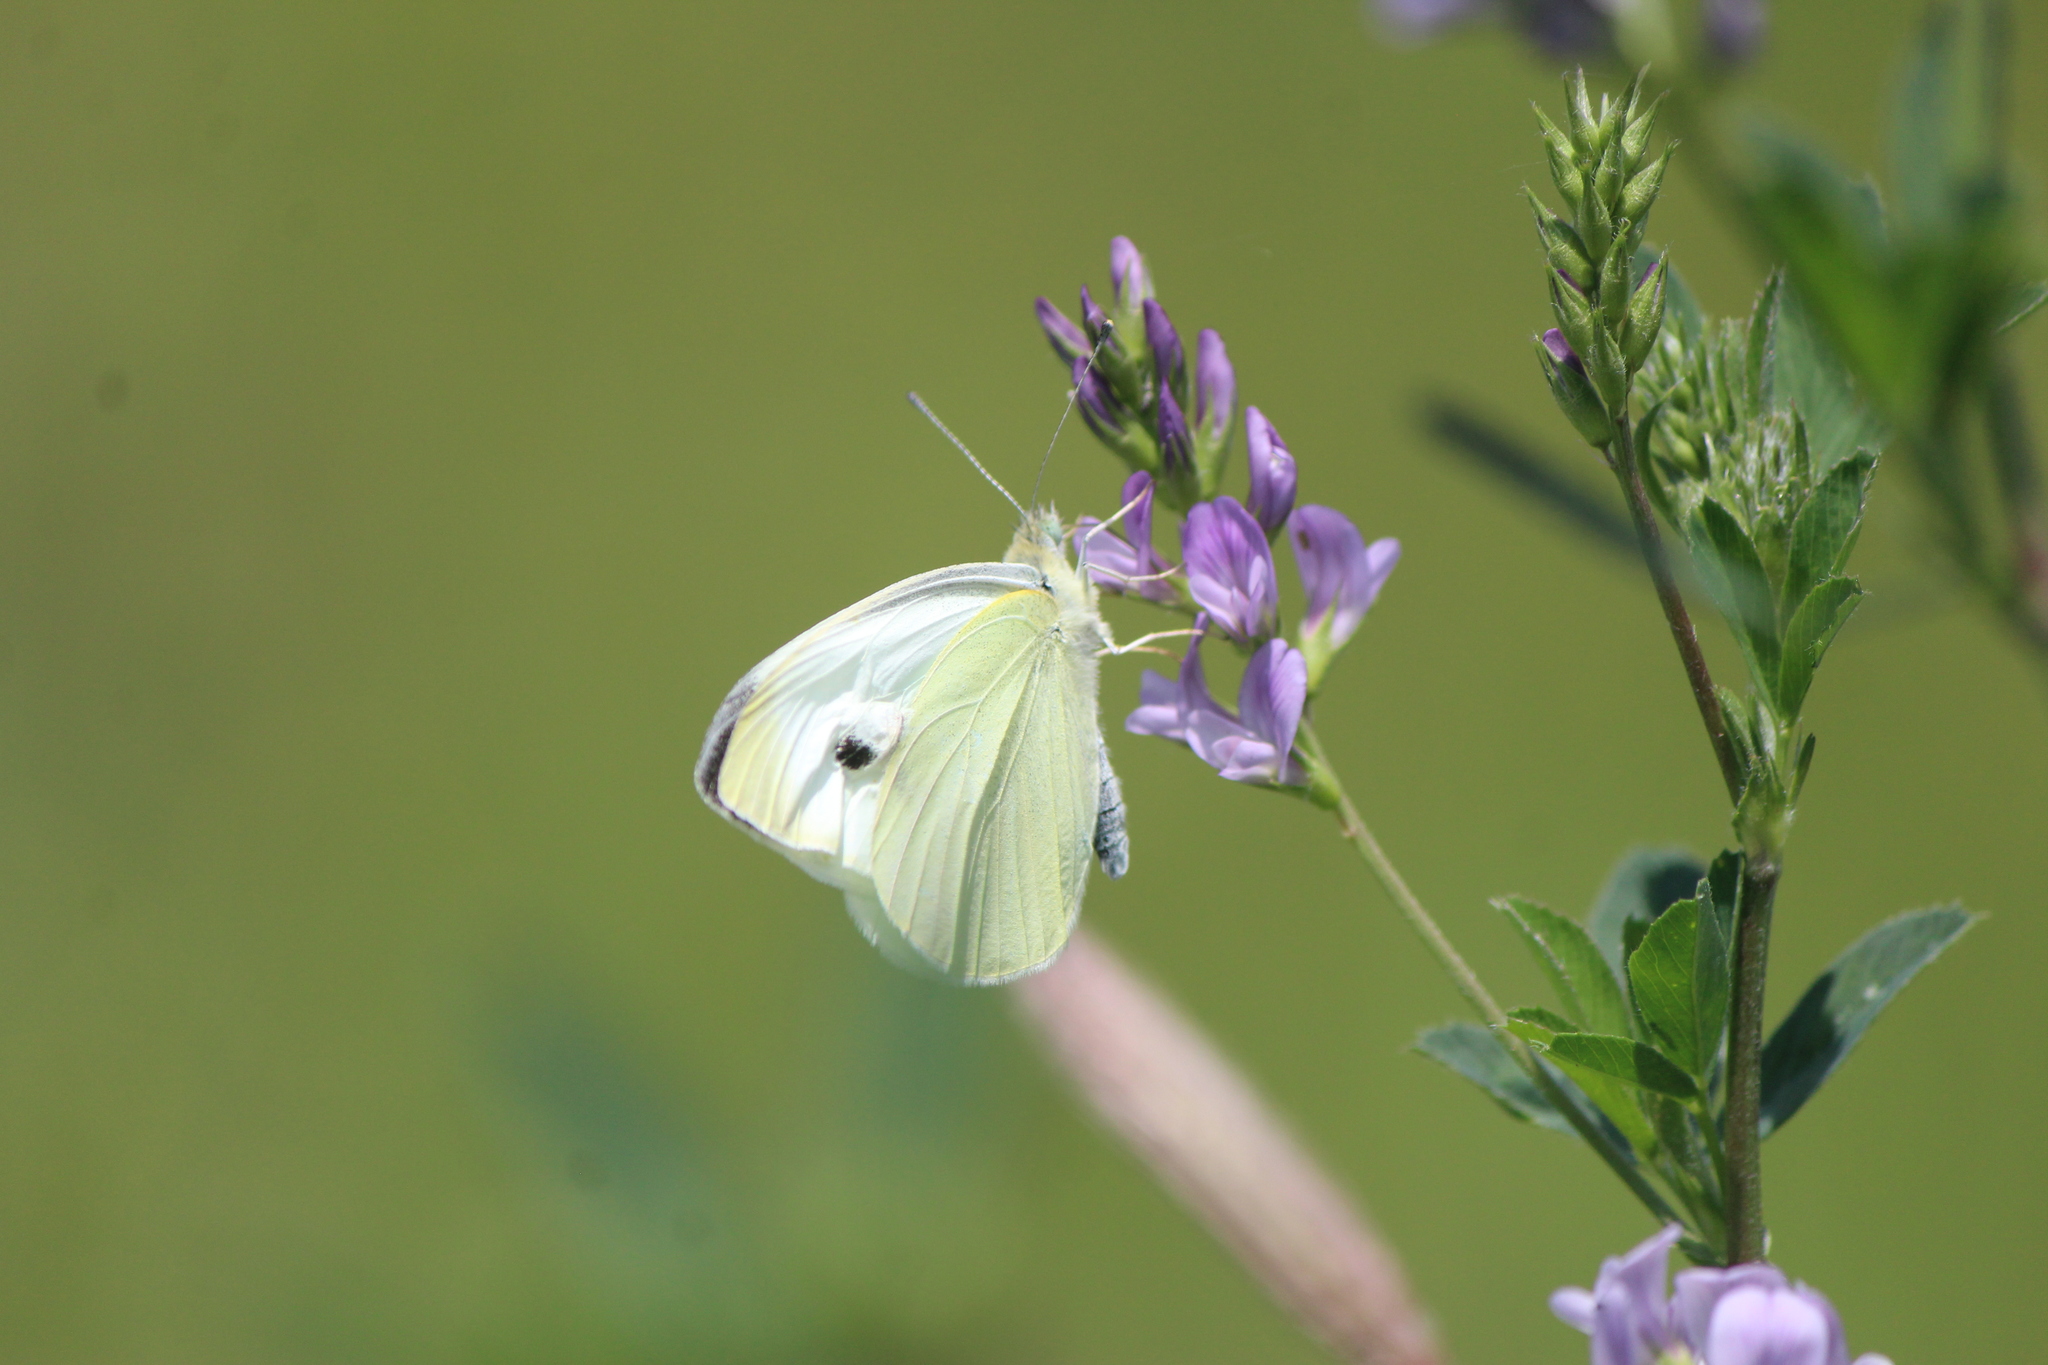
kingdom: Animalia
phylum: Arthropoda
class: Insecta
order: Lepidoptera
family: Pieridae
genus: Pieris
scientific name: Pieris rapae
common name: Small white
